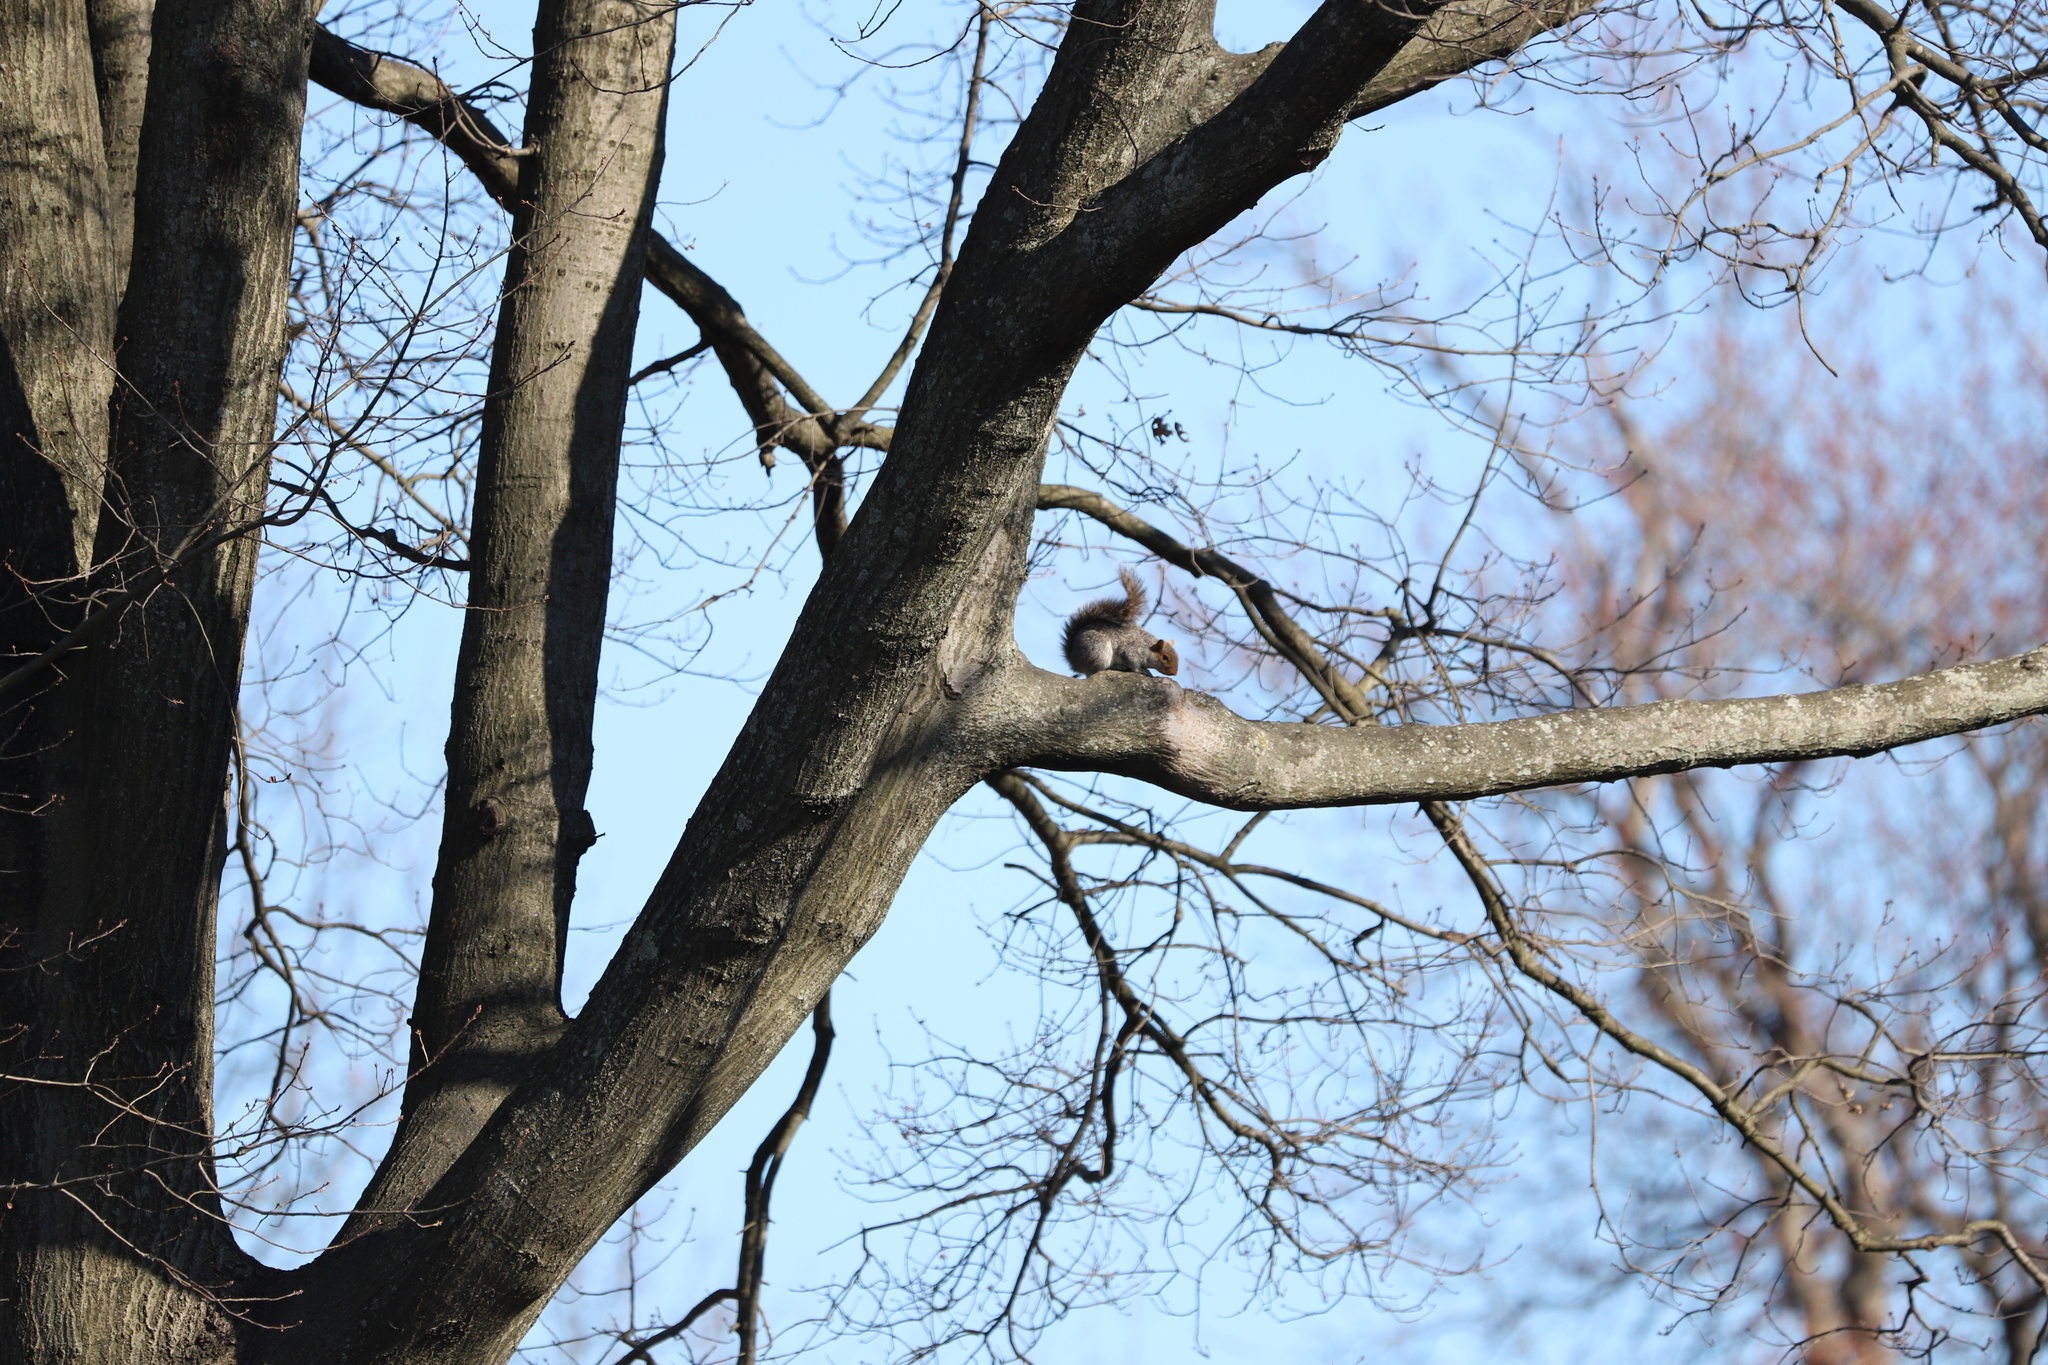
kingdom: Animalia
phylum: Chordata
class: Mammalia
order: Rodentia
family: Sciuridae
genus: Sciurus
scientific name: Sciurus carolinensis
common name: Eastern gray squirrel
